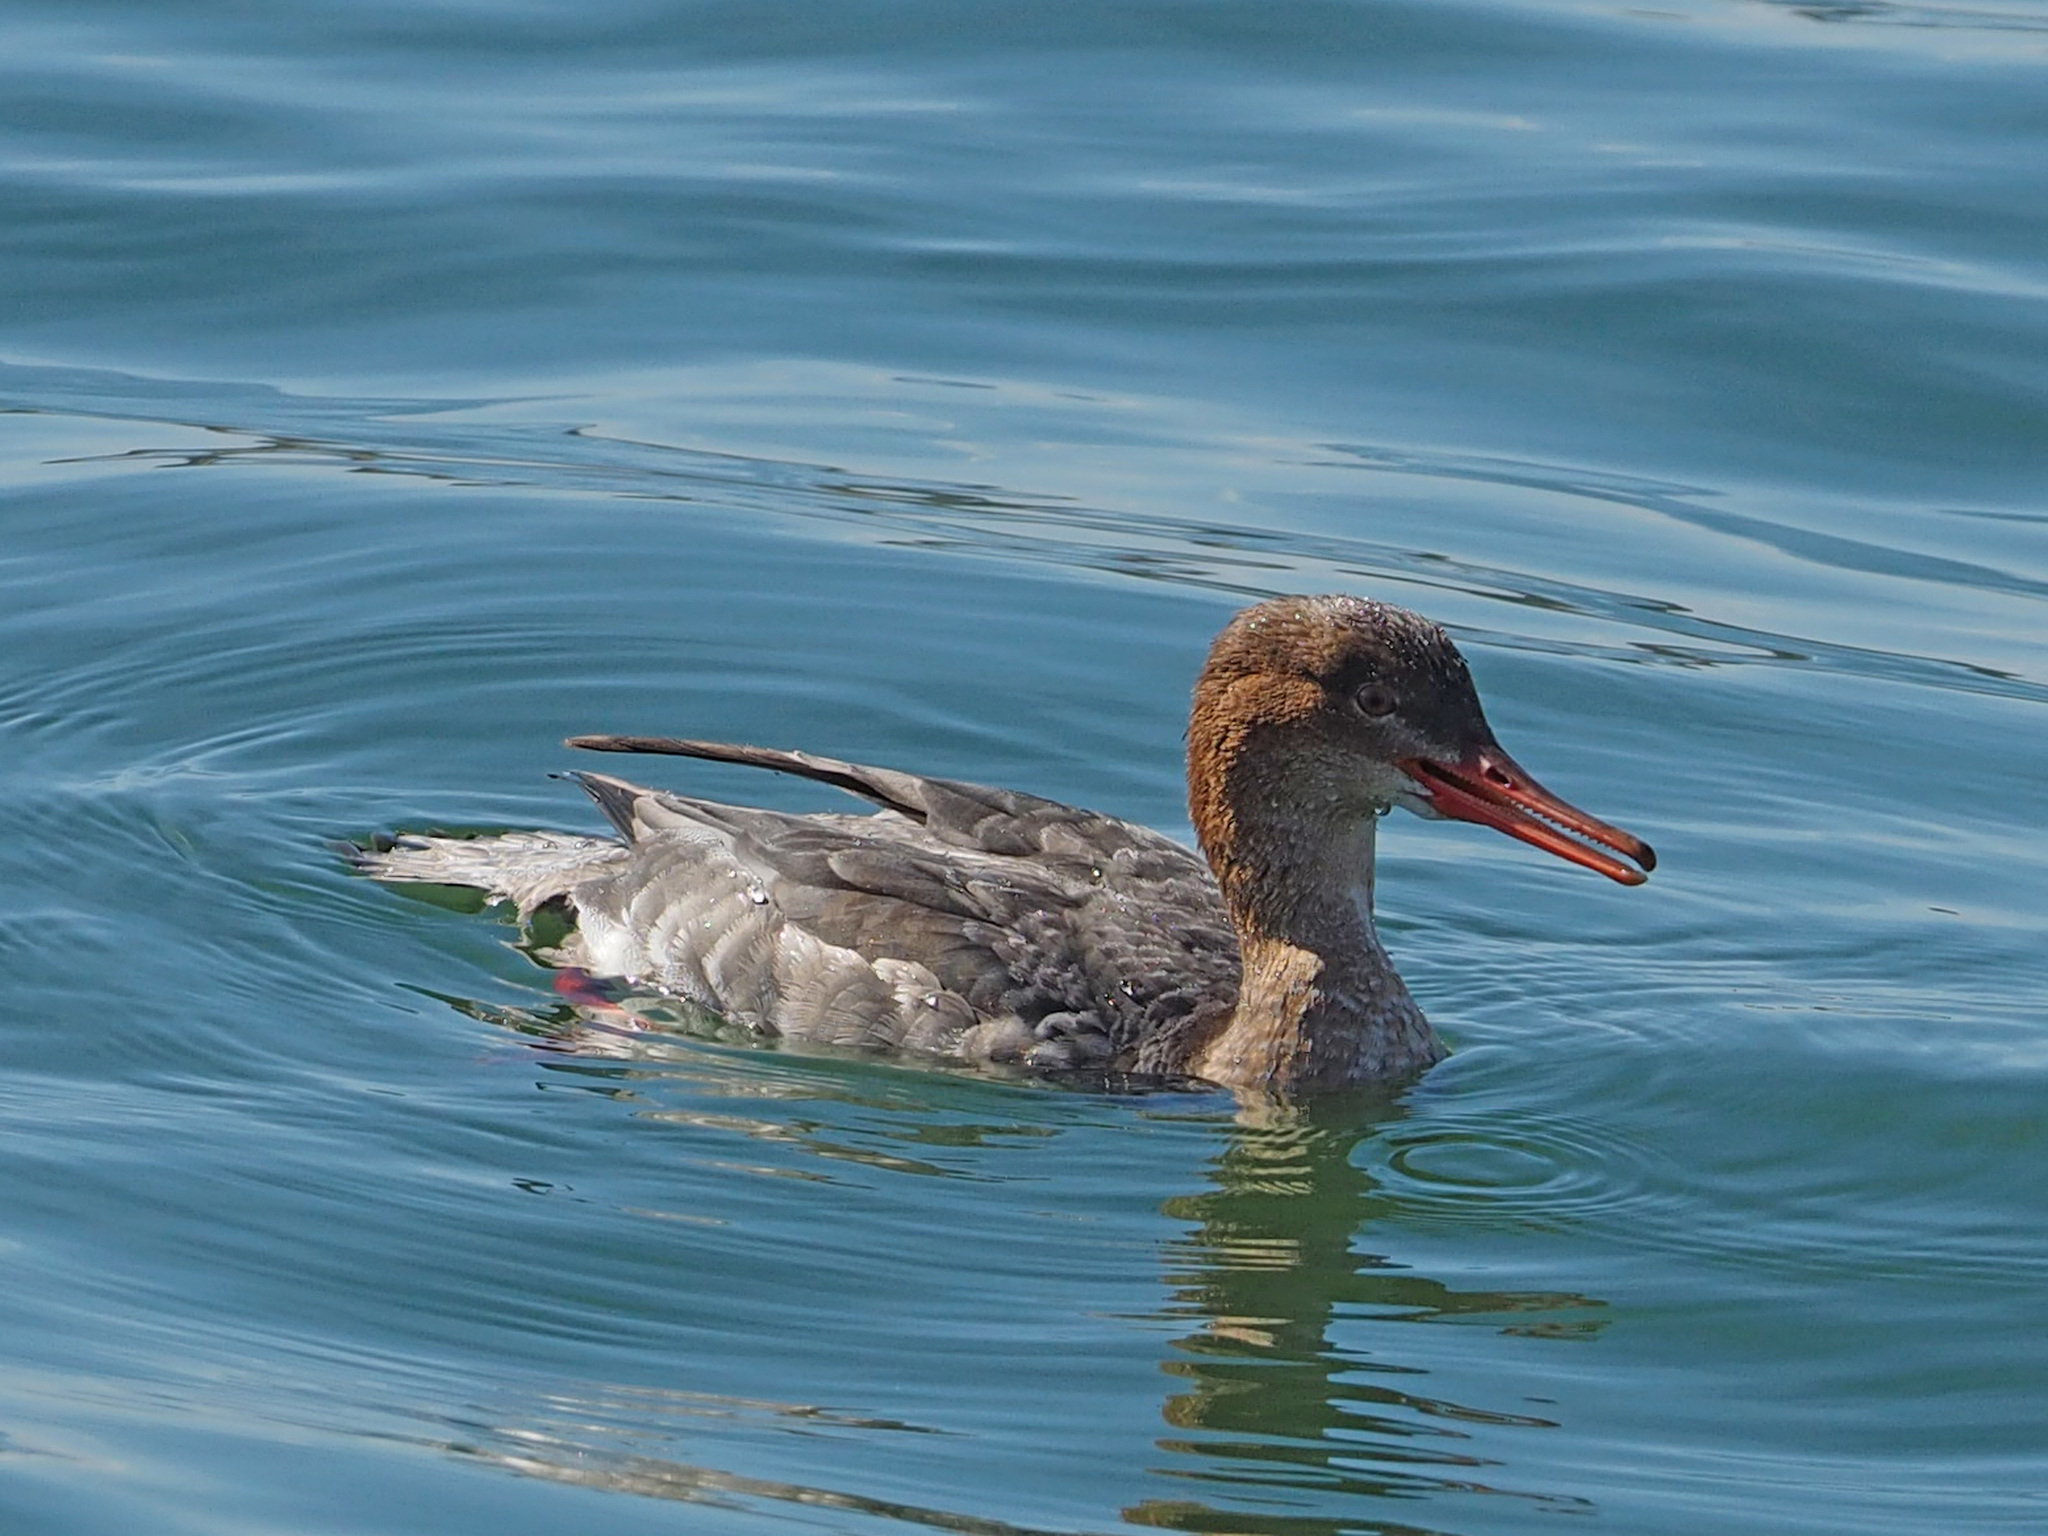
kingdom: Animalia
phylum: Chordata
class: Aves
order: Anseriformes
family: Anatidae
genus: Mergus
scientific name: Mergus serrator
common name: Red-breasted merganser
